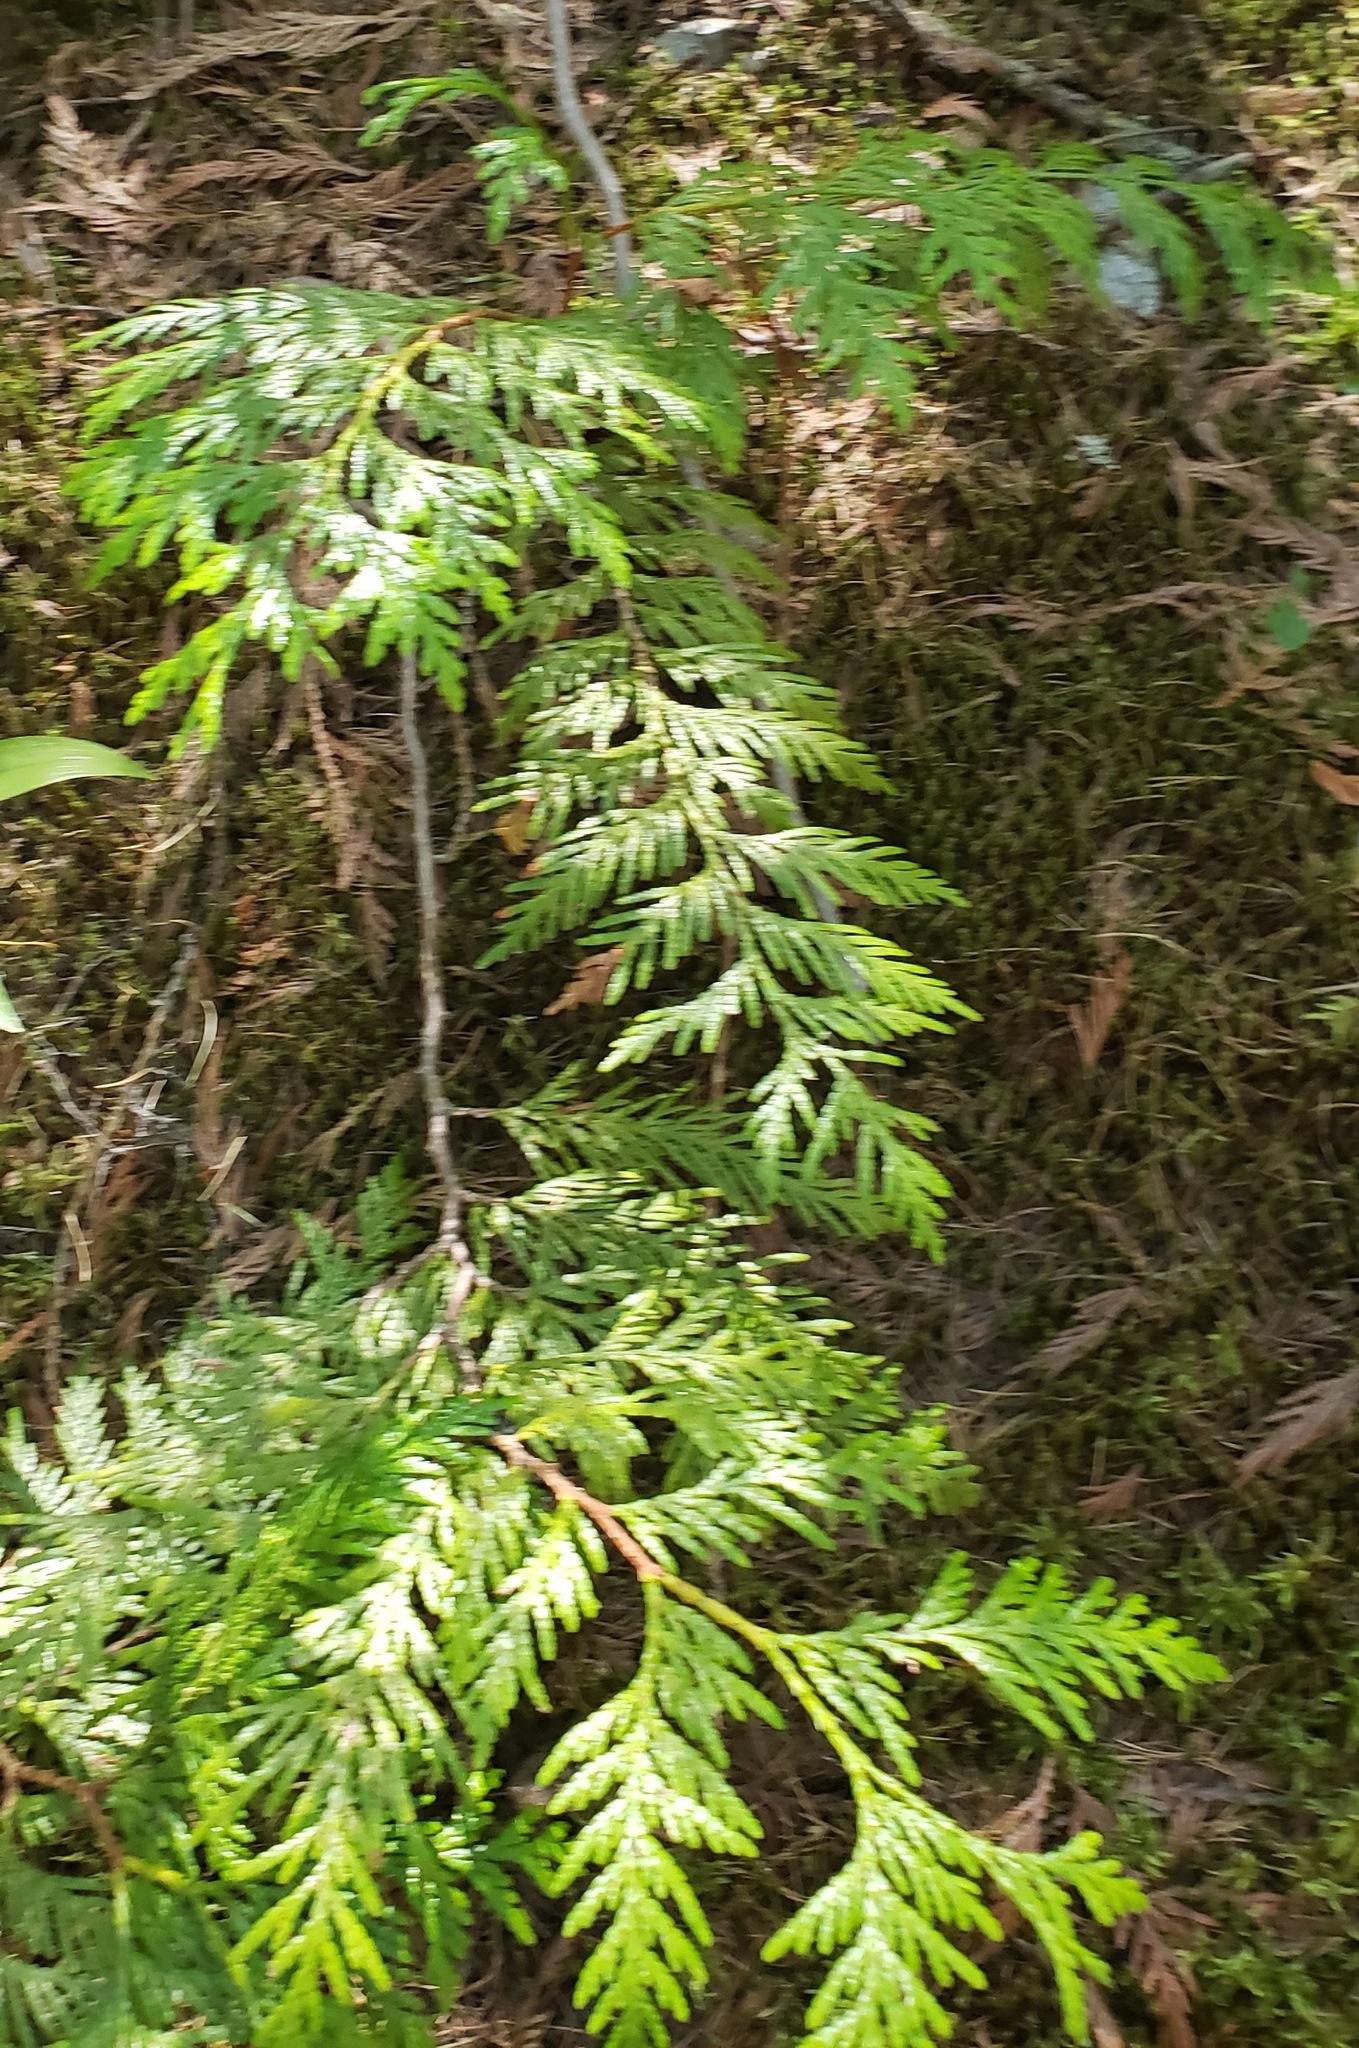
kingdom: Plantae
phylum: Tracheophyta
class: Pinopsida
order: Pinales
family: Cupressaceae
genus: Thuja
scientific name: Thuja plicata
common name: Western red-cedar
